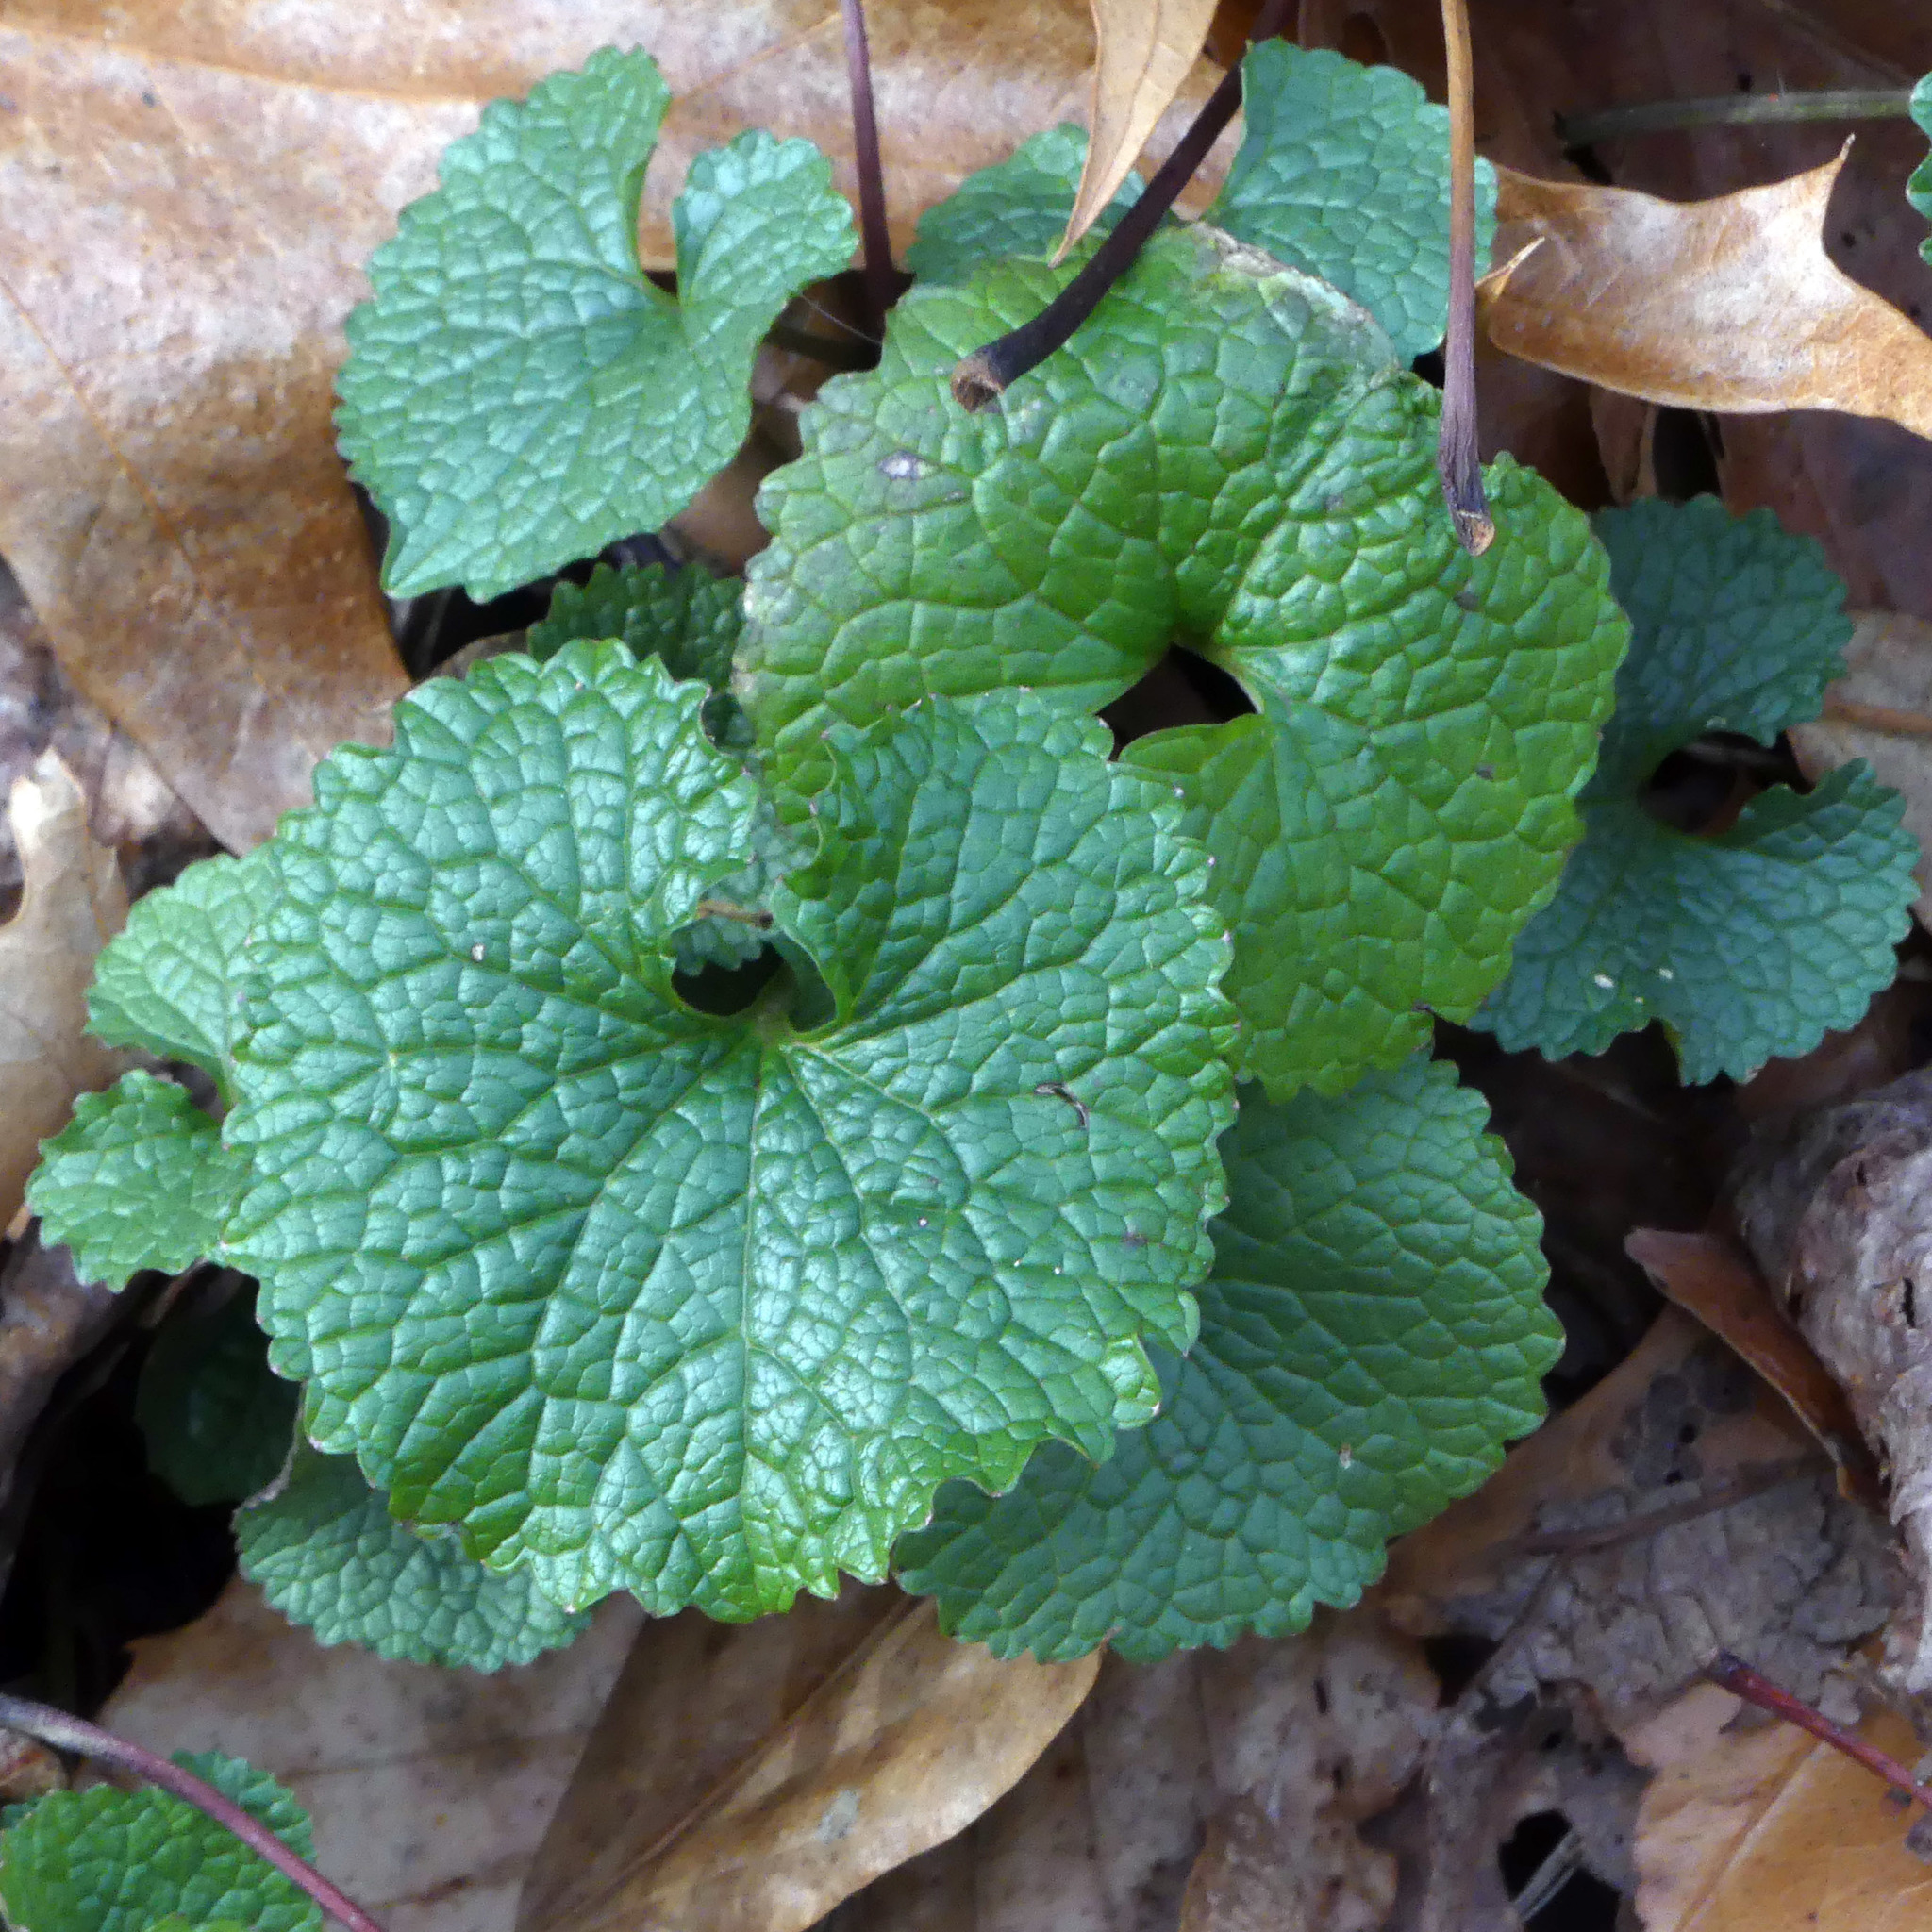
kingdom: Plantae
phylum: Tracheophyta
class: Magnoliopsida
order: Brassicales
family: Brassicaceae
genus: Alliaria
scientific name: Alliaria petiolata
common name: Garlic mustard
